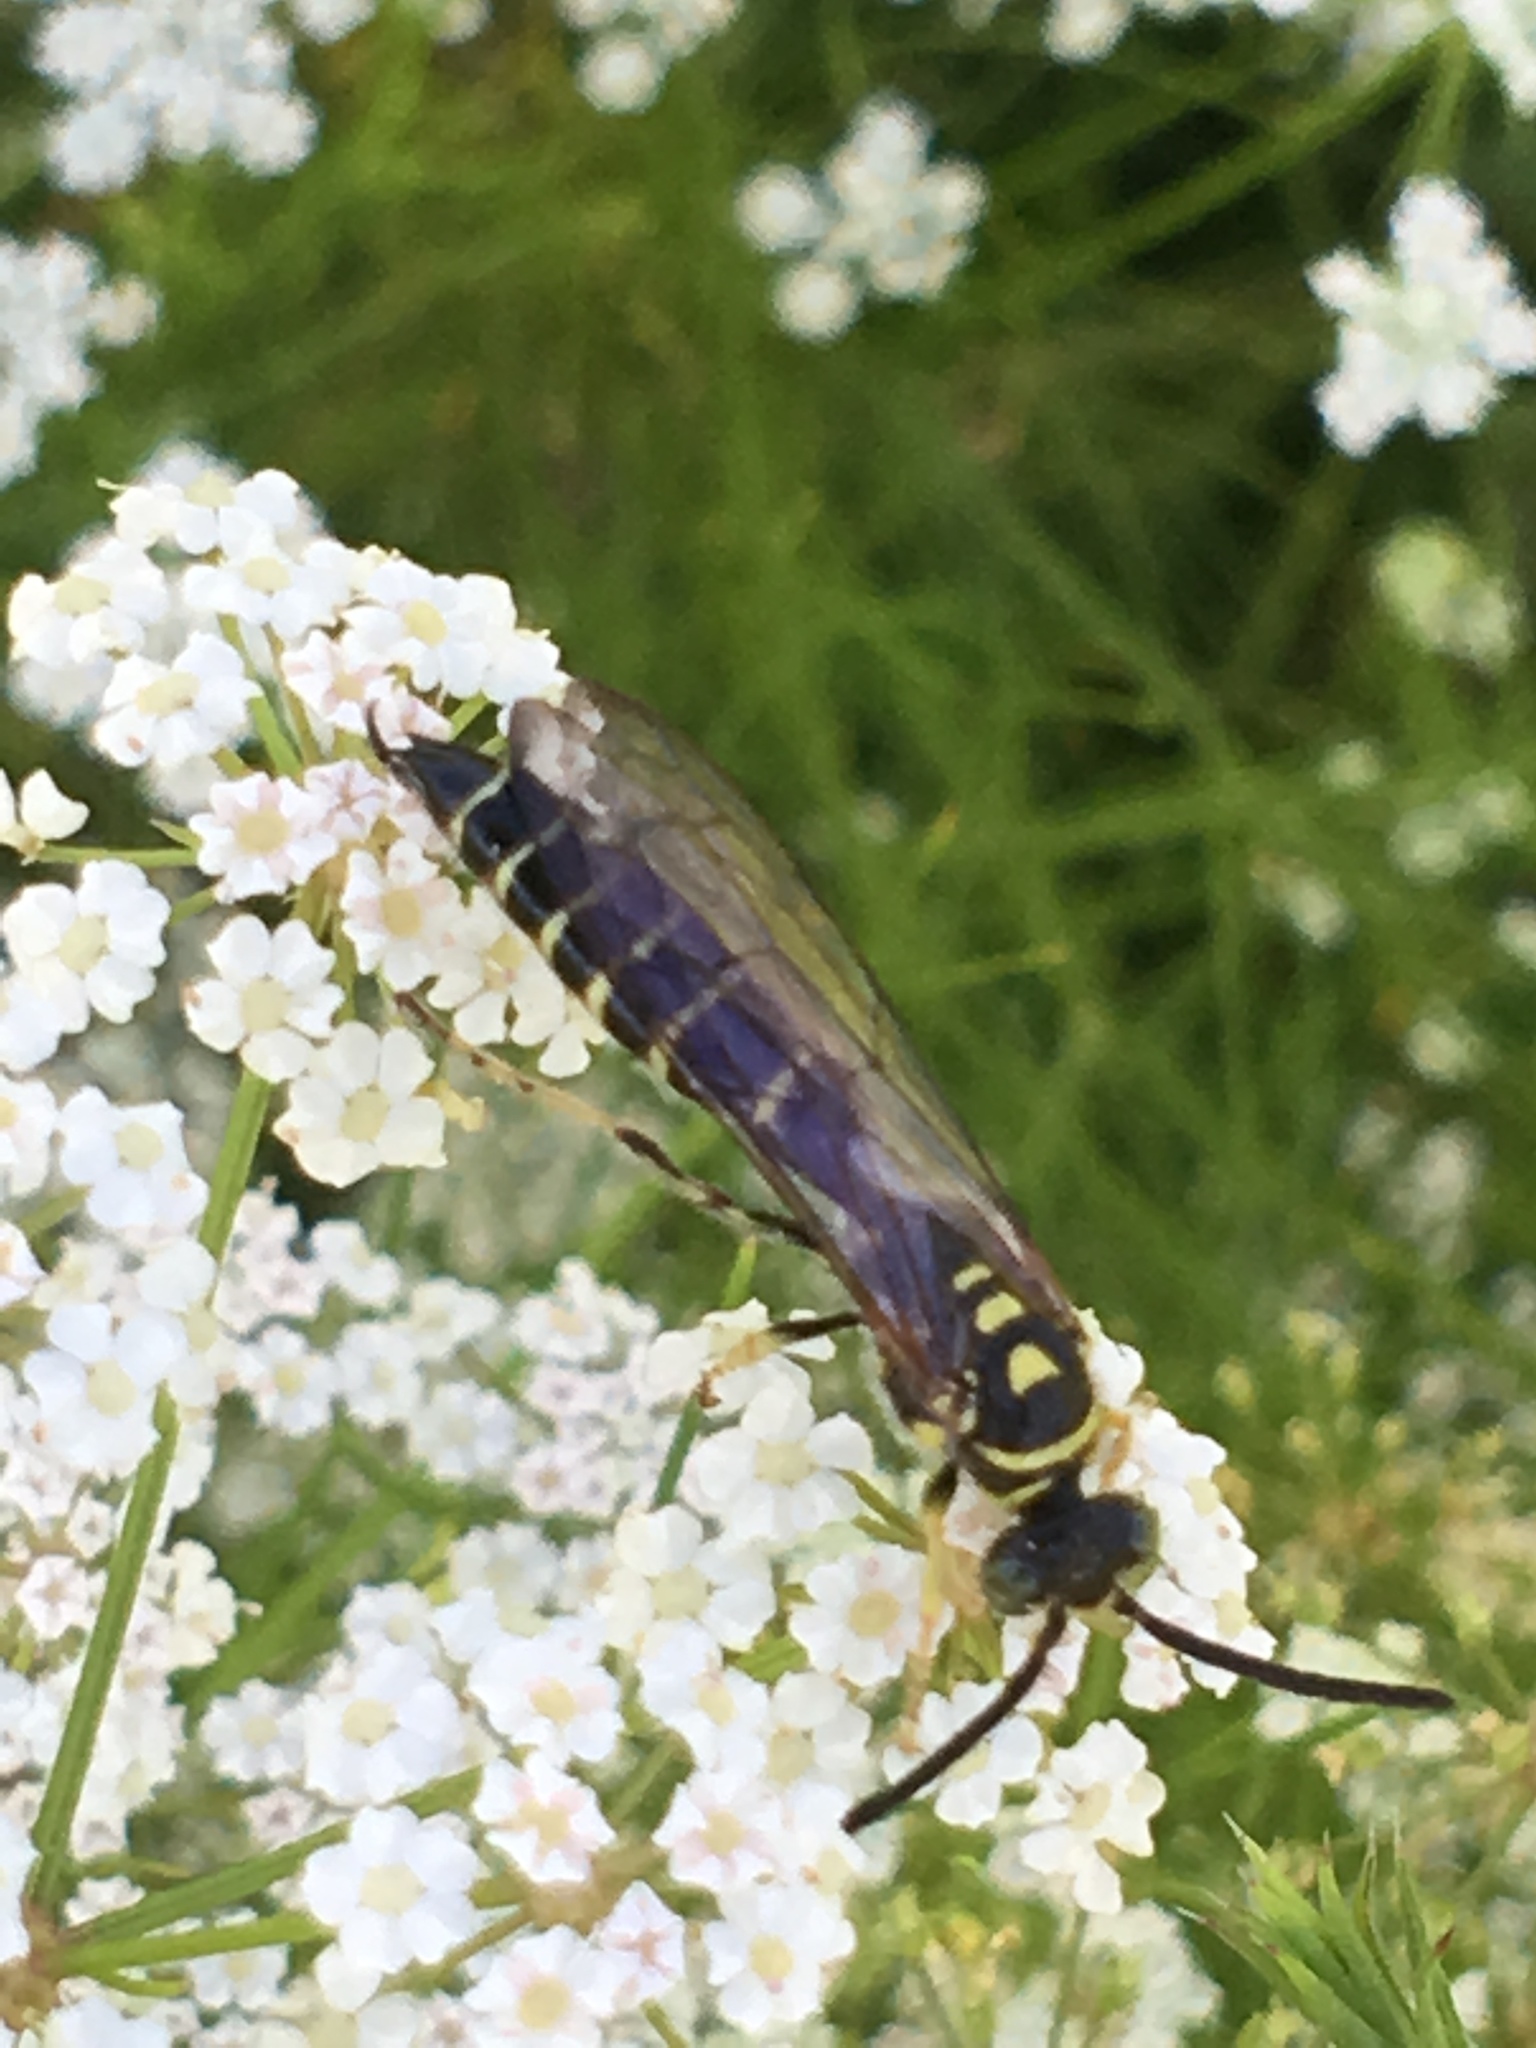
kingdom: Animalia
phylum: Arthropoda
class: Insecta
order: Hymenoptera
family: Tiphiidae
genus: Myzinum
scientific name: Myzinum
